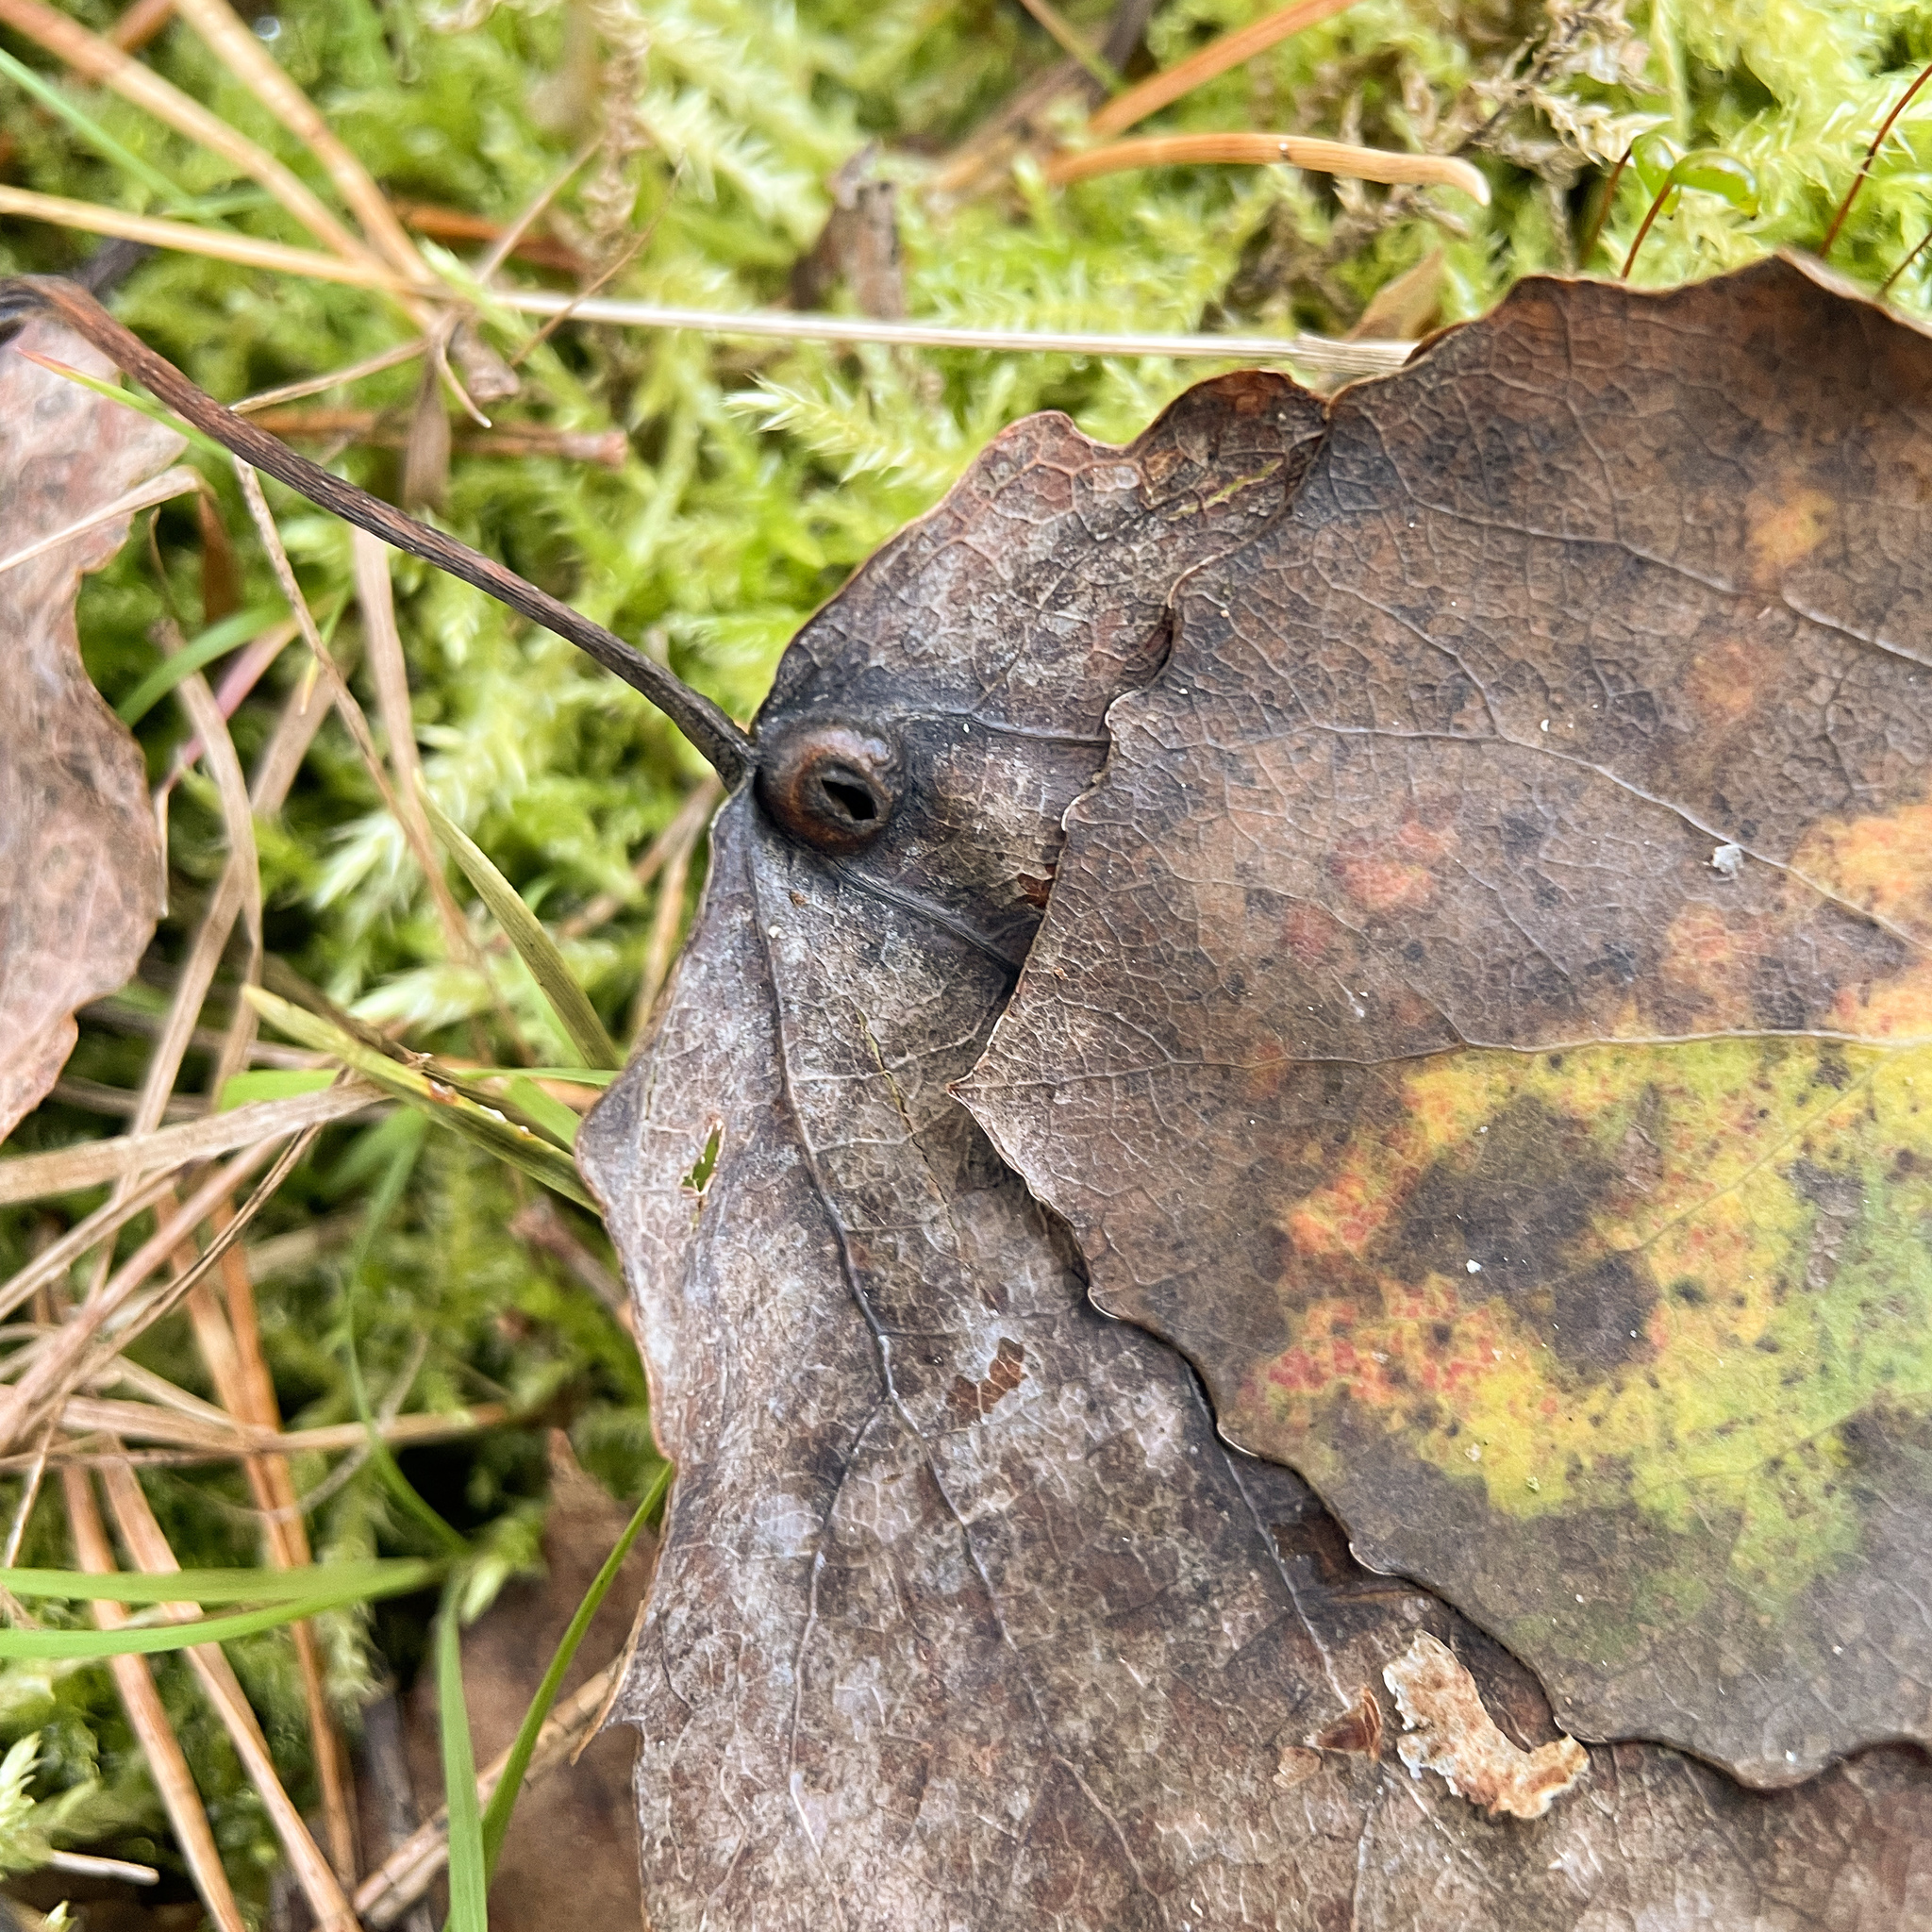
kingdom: Animalia
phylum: Arthropoda
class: Insecta
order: Diptera
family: Cecidomyiidae
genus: Harmandiola
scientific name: Harmandiola cavernosa
